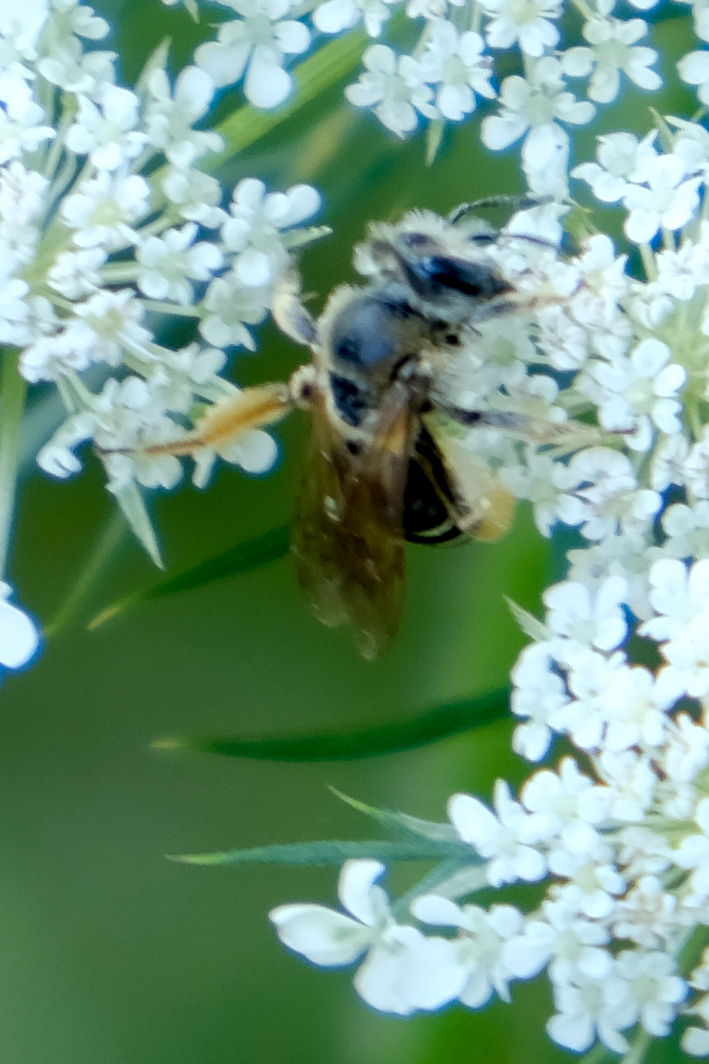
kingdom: Animalia
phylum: Arthropoda
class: Insecta
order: Hymenoptera
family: Andrenidae
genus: Andrena
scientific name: Andrena wilkella
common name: Wilke's mining bee
